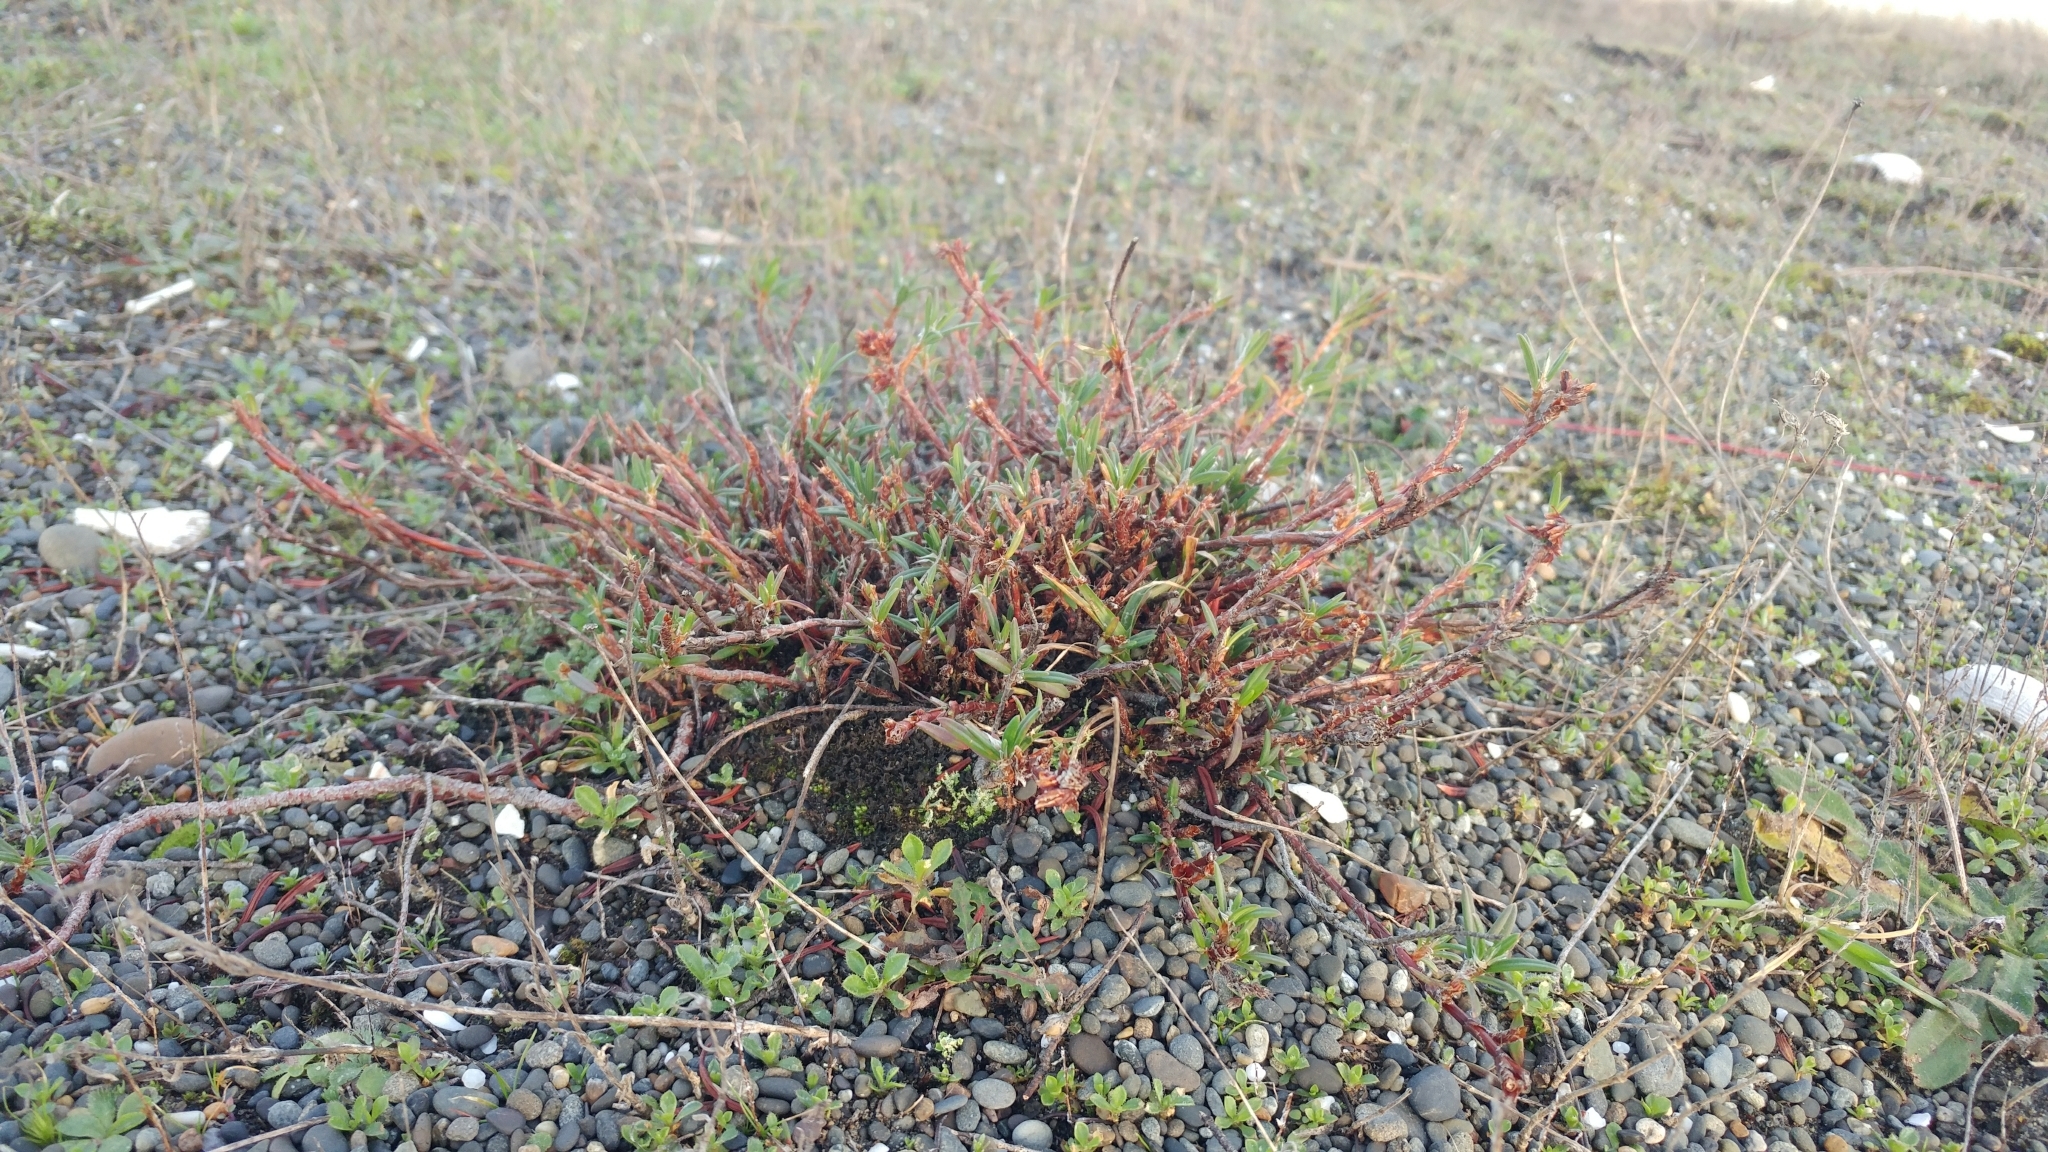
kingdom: Plantae
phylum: Tracheophyta
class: Magnoliopsida
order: Caryophyllales
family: Polygonaceae
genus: Polygonum
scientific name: Polygonum paronychia
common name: Dune knotweed
